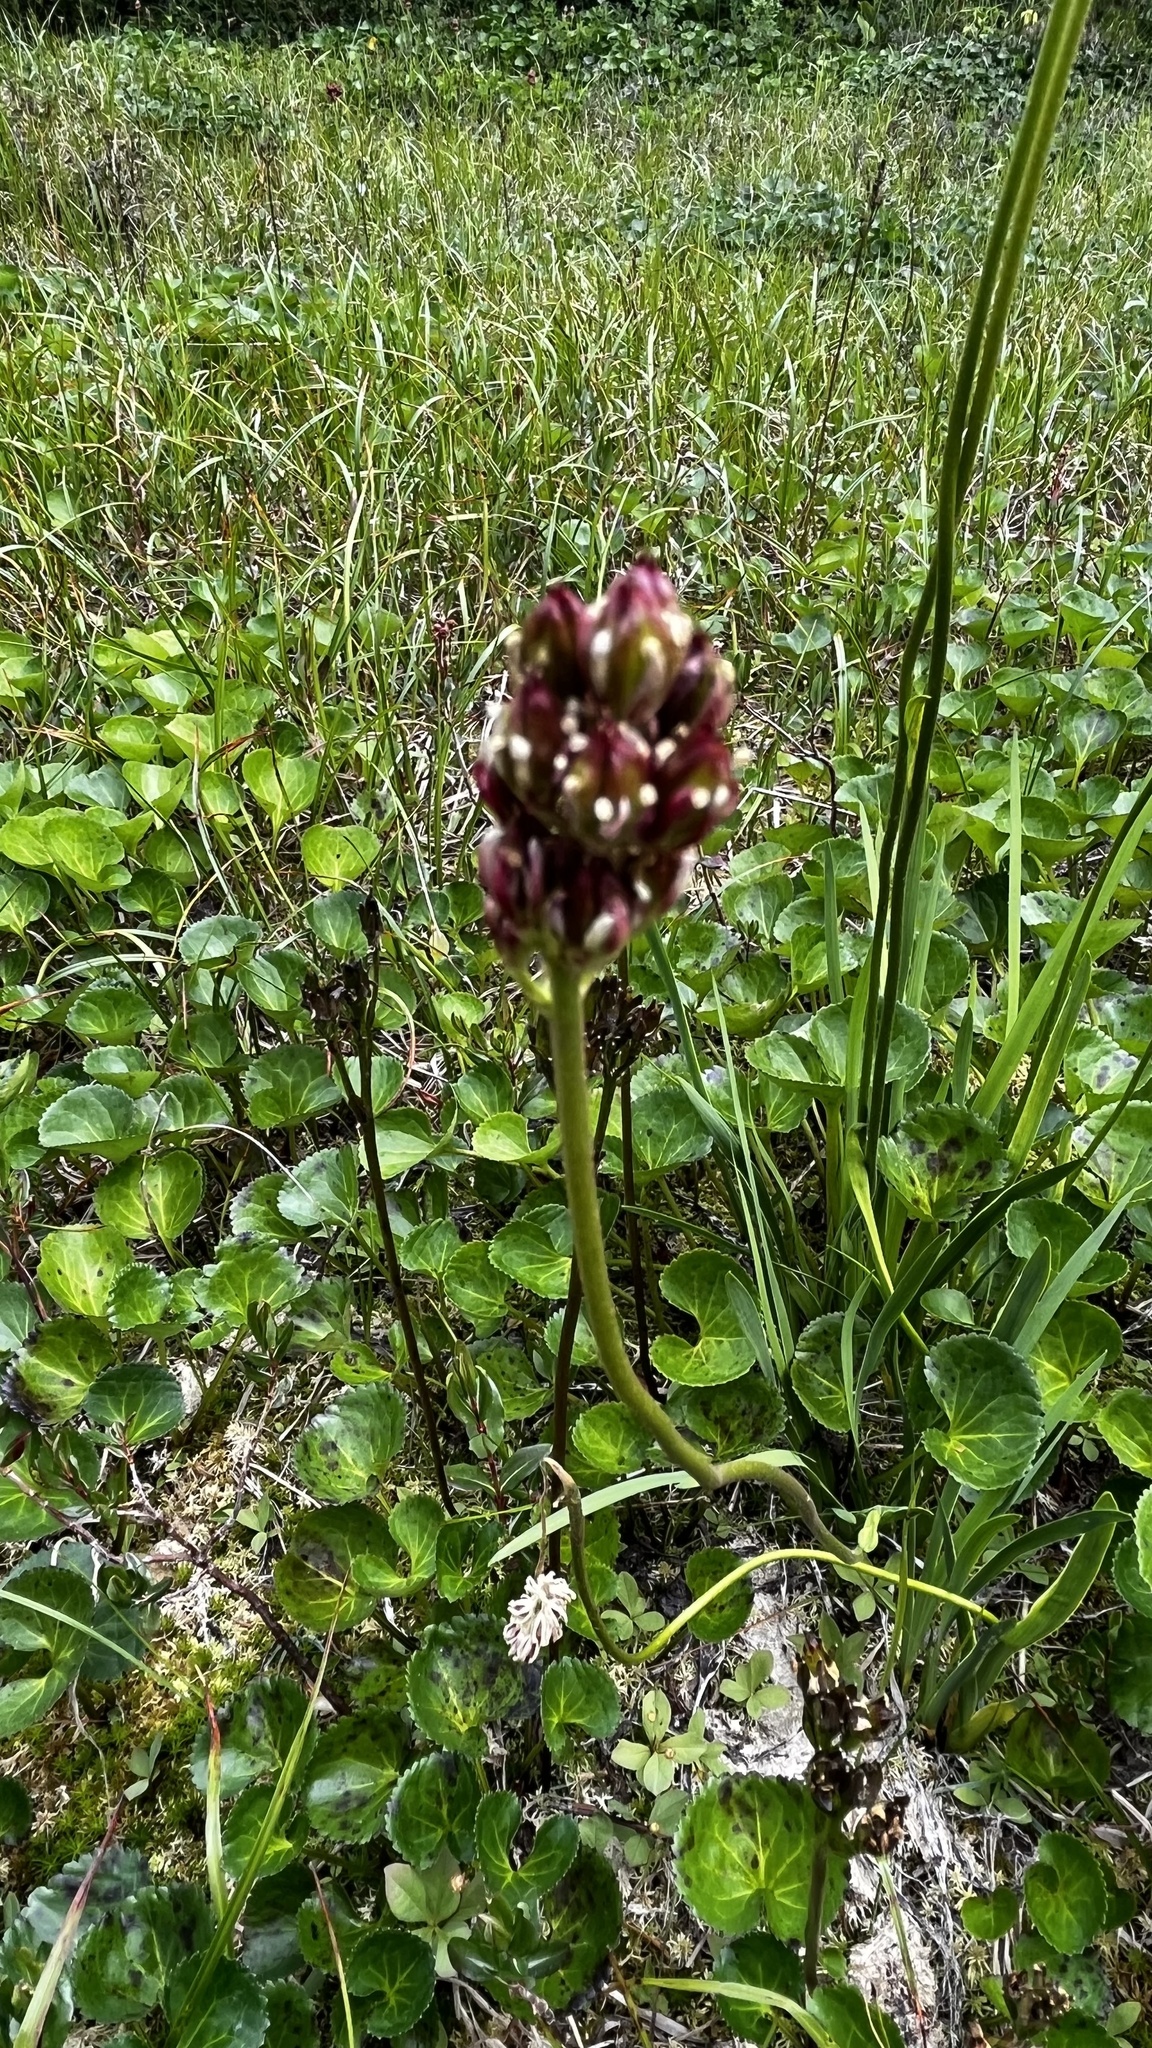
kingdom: Plantae
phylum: Tracheophyta
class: Liliopsida
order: Alismatales
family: Tofieldiaceae
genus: Triantha
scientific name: Triantha occidentalis
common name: Western false asphodel
